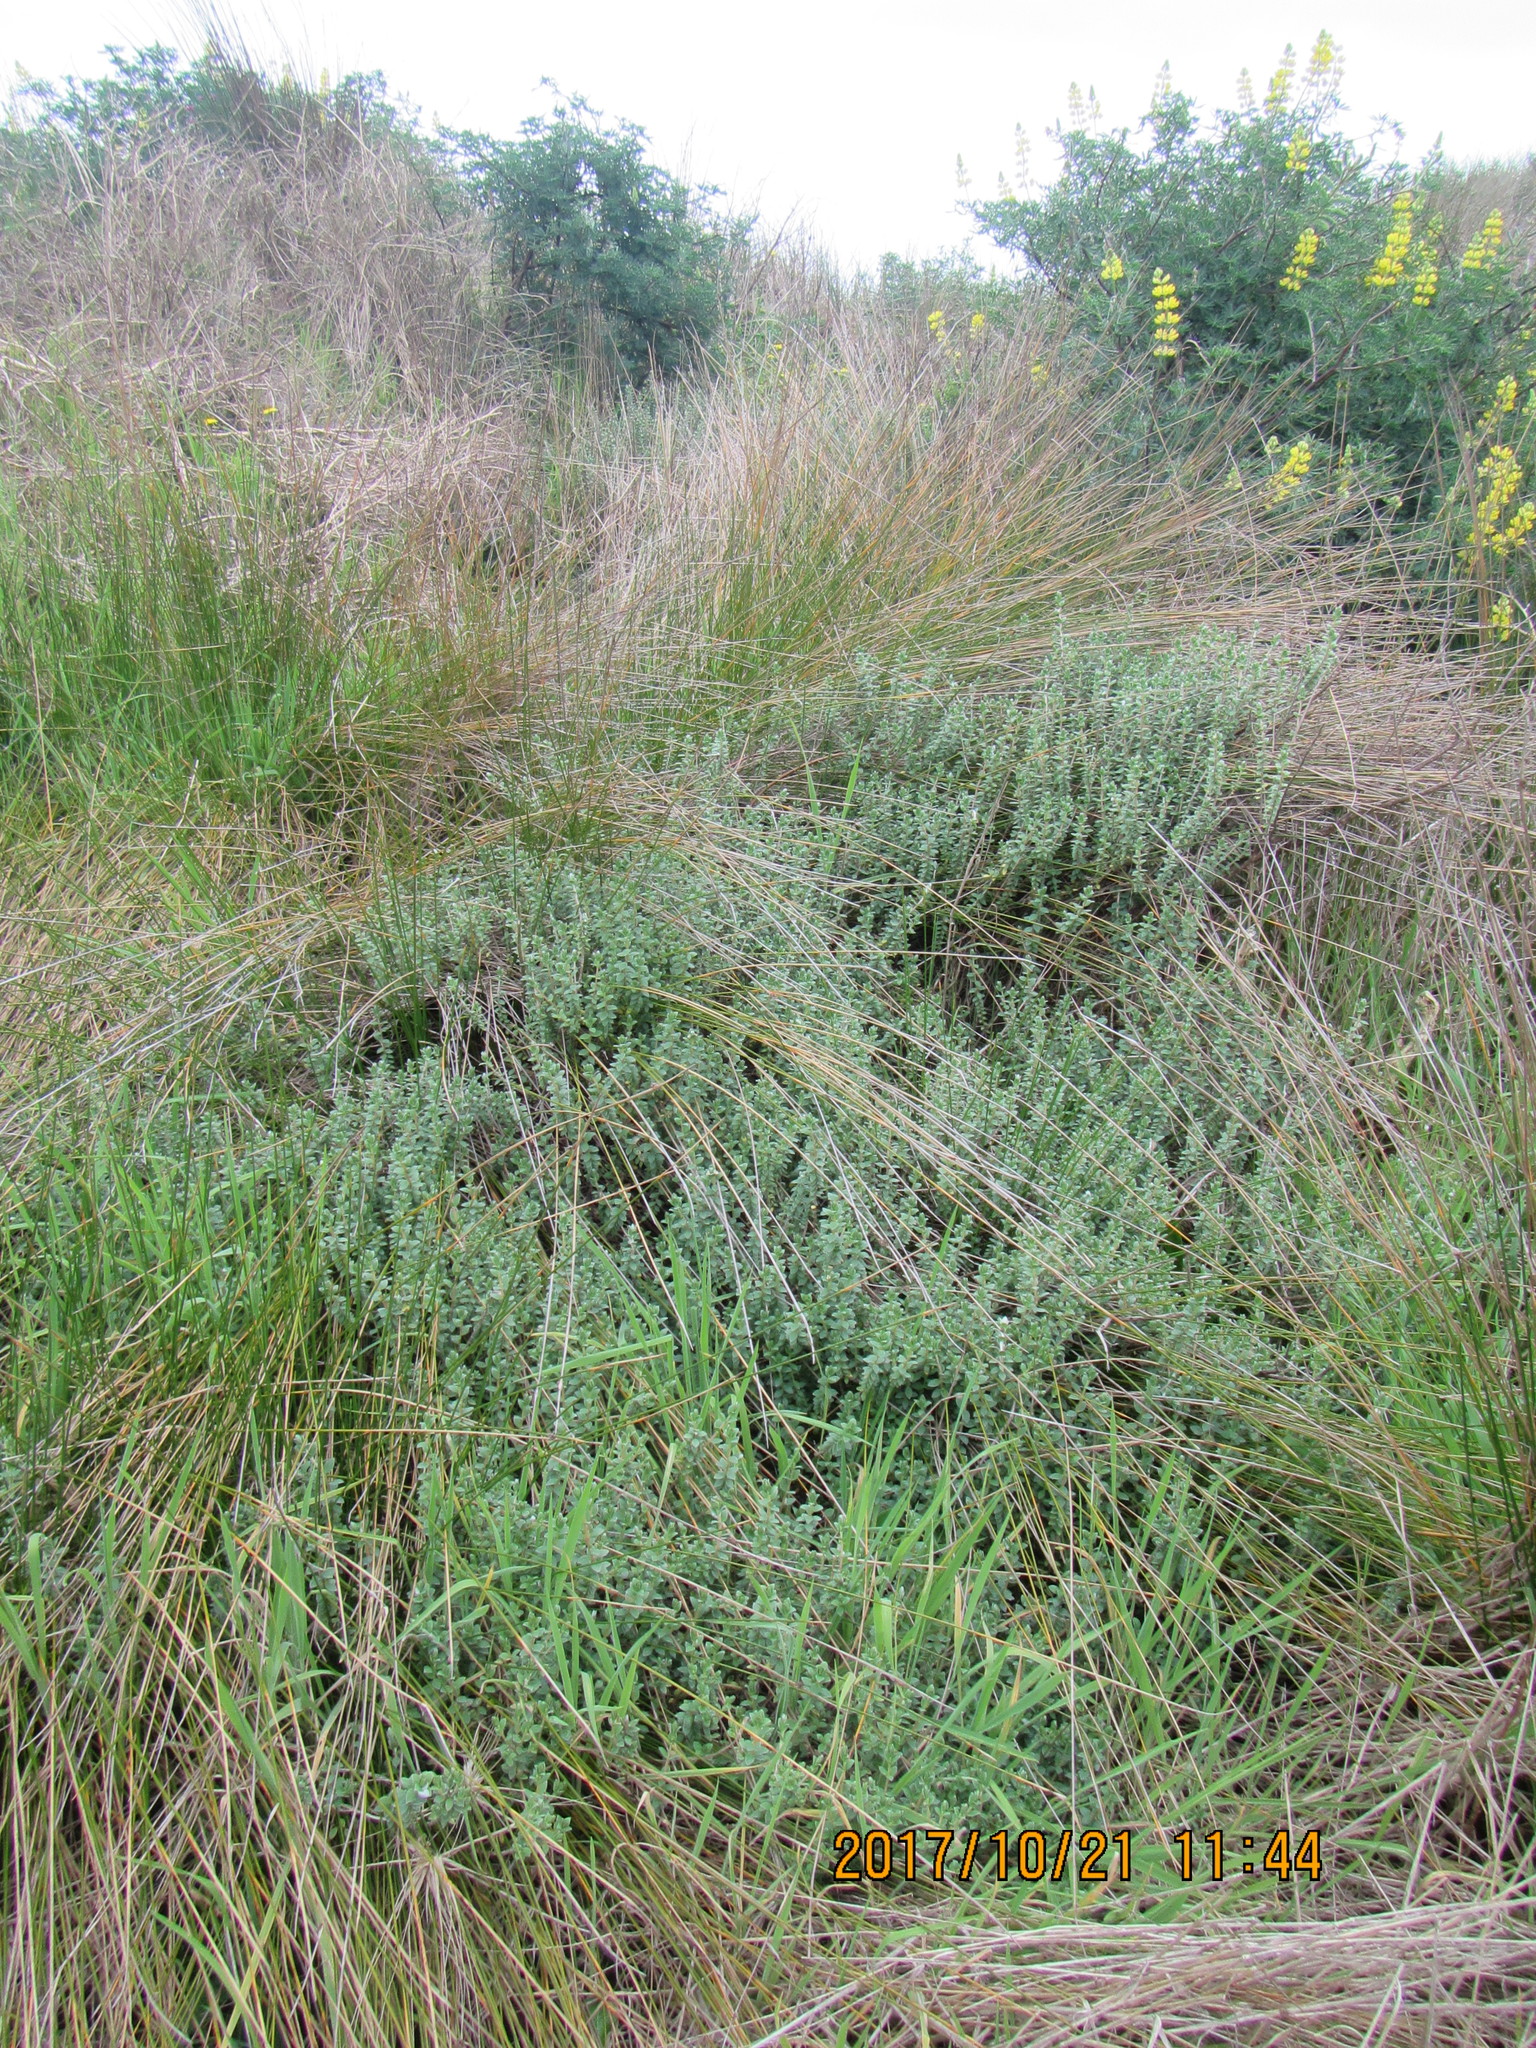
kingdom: Plantae
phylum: Tracheophyta
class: Magnoliopsida
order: Malvales
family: Thymelaeaceae
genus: Pimelea
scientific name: Pimelea villosa
